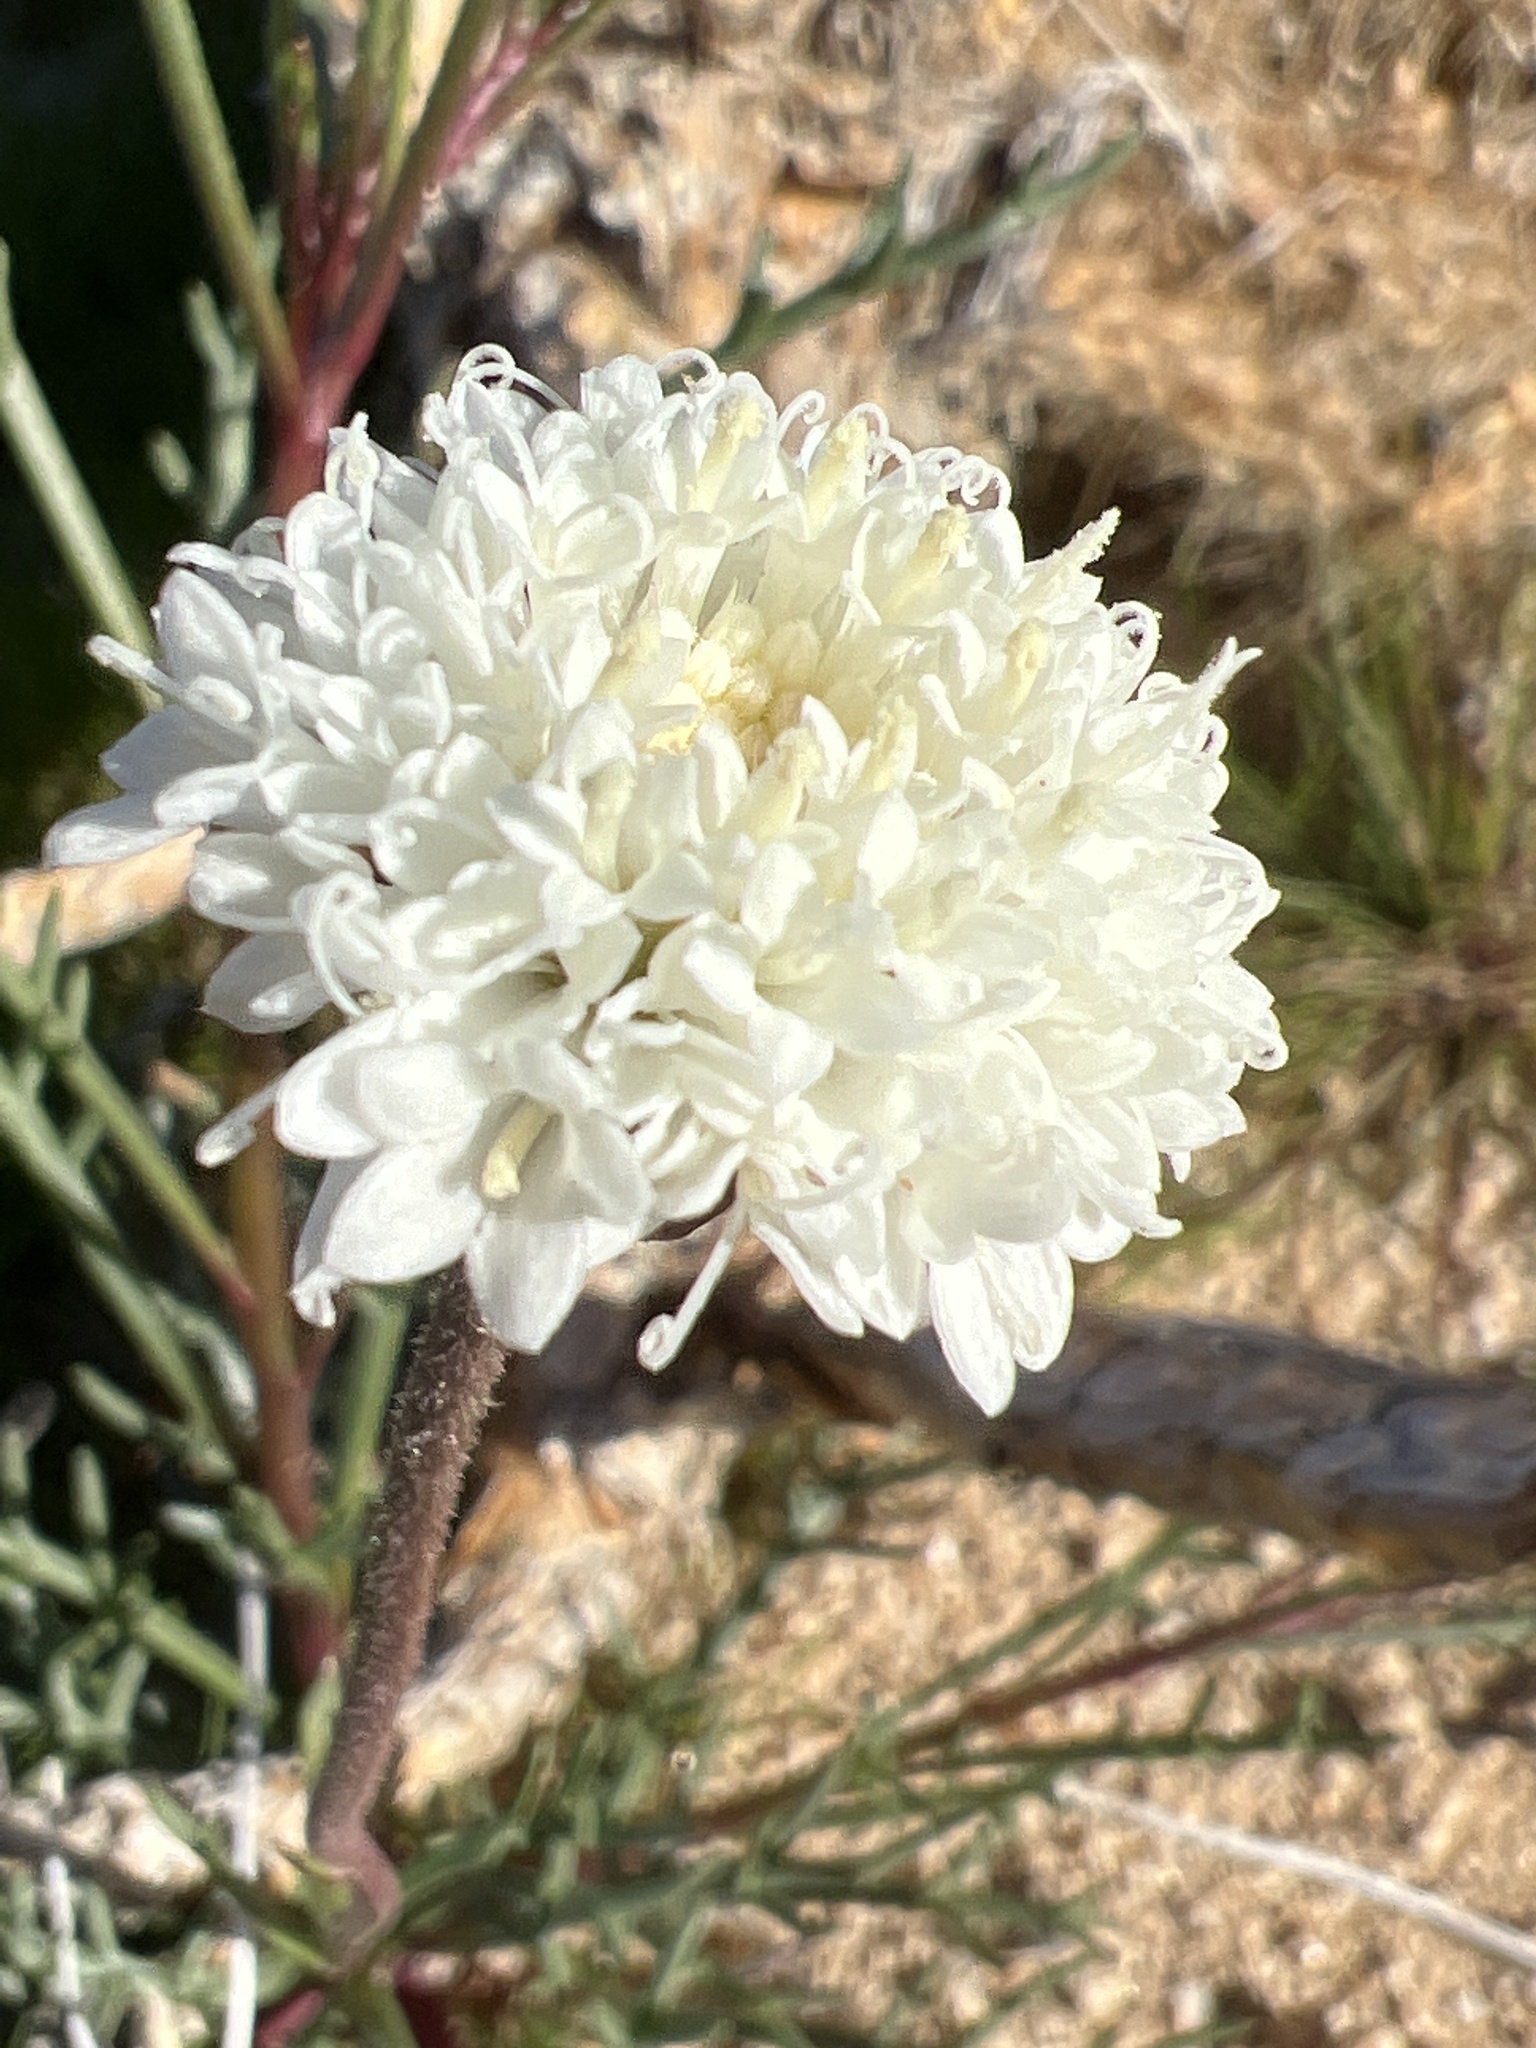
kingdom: Plantae
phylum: Tracheophyta
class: Magnoliopsida
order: Asterales
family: Asteraceae
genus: Chaenactis
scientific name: Chaenactis fremontii
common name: Fremont pincushion
